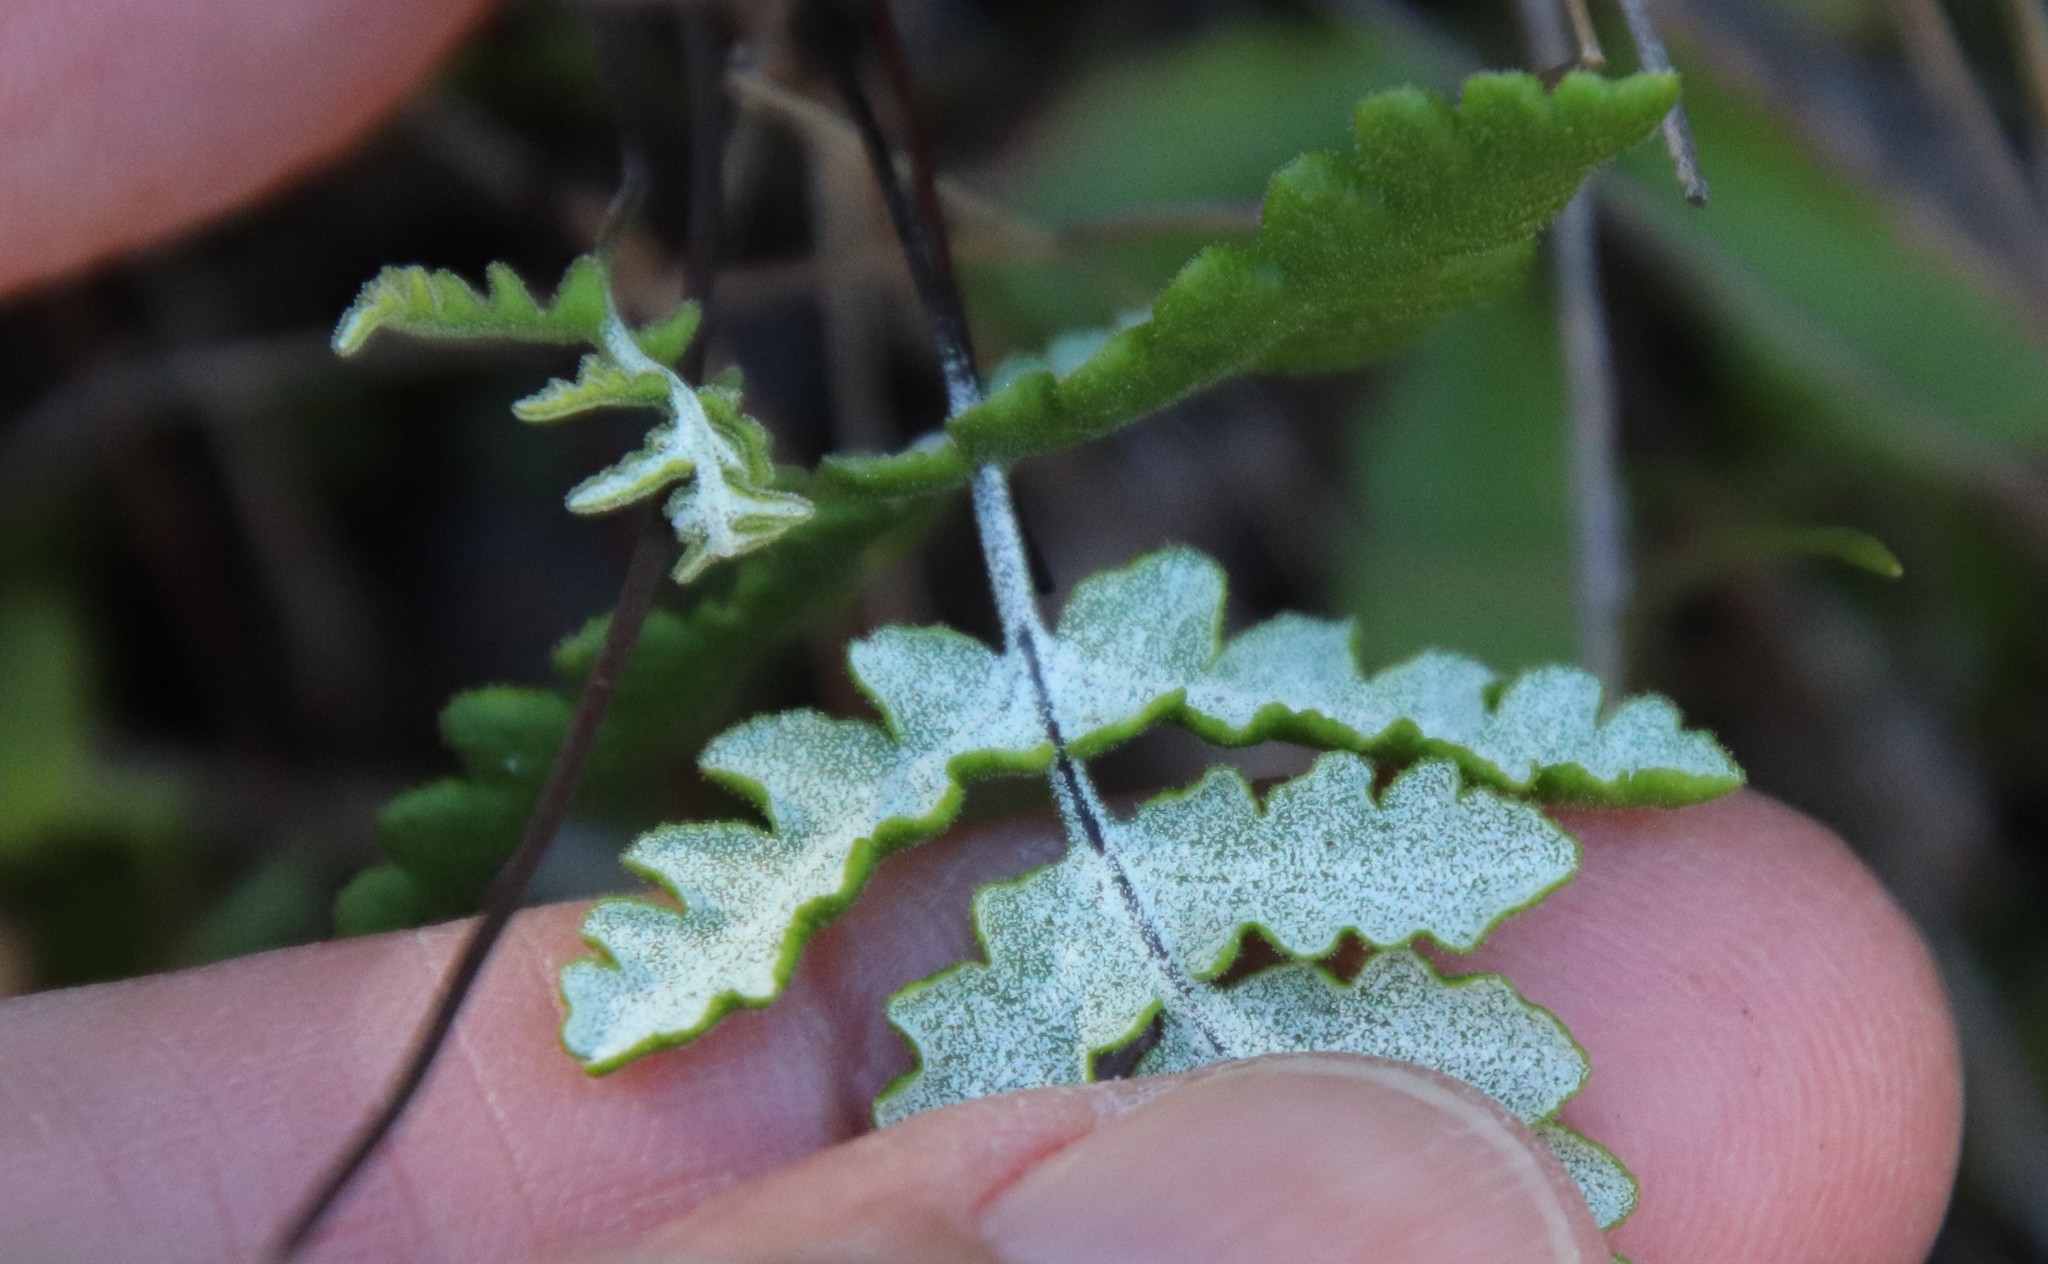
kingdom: Plantae
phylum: Tracheophyta
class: Polypodiopsida
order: Polypodiales
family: Pteridaceae
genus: Pentagramma
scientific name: Pentagramma glanduloviscida
